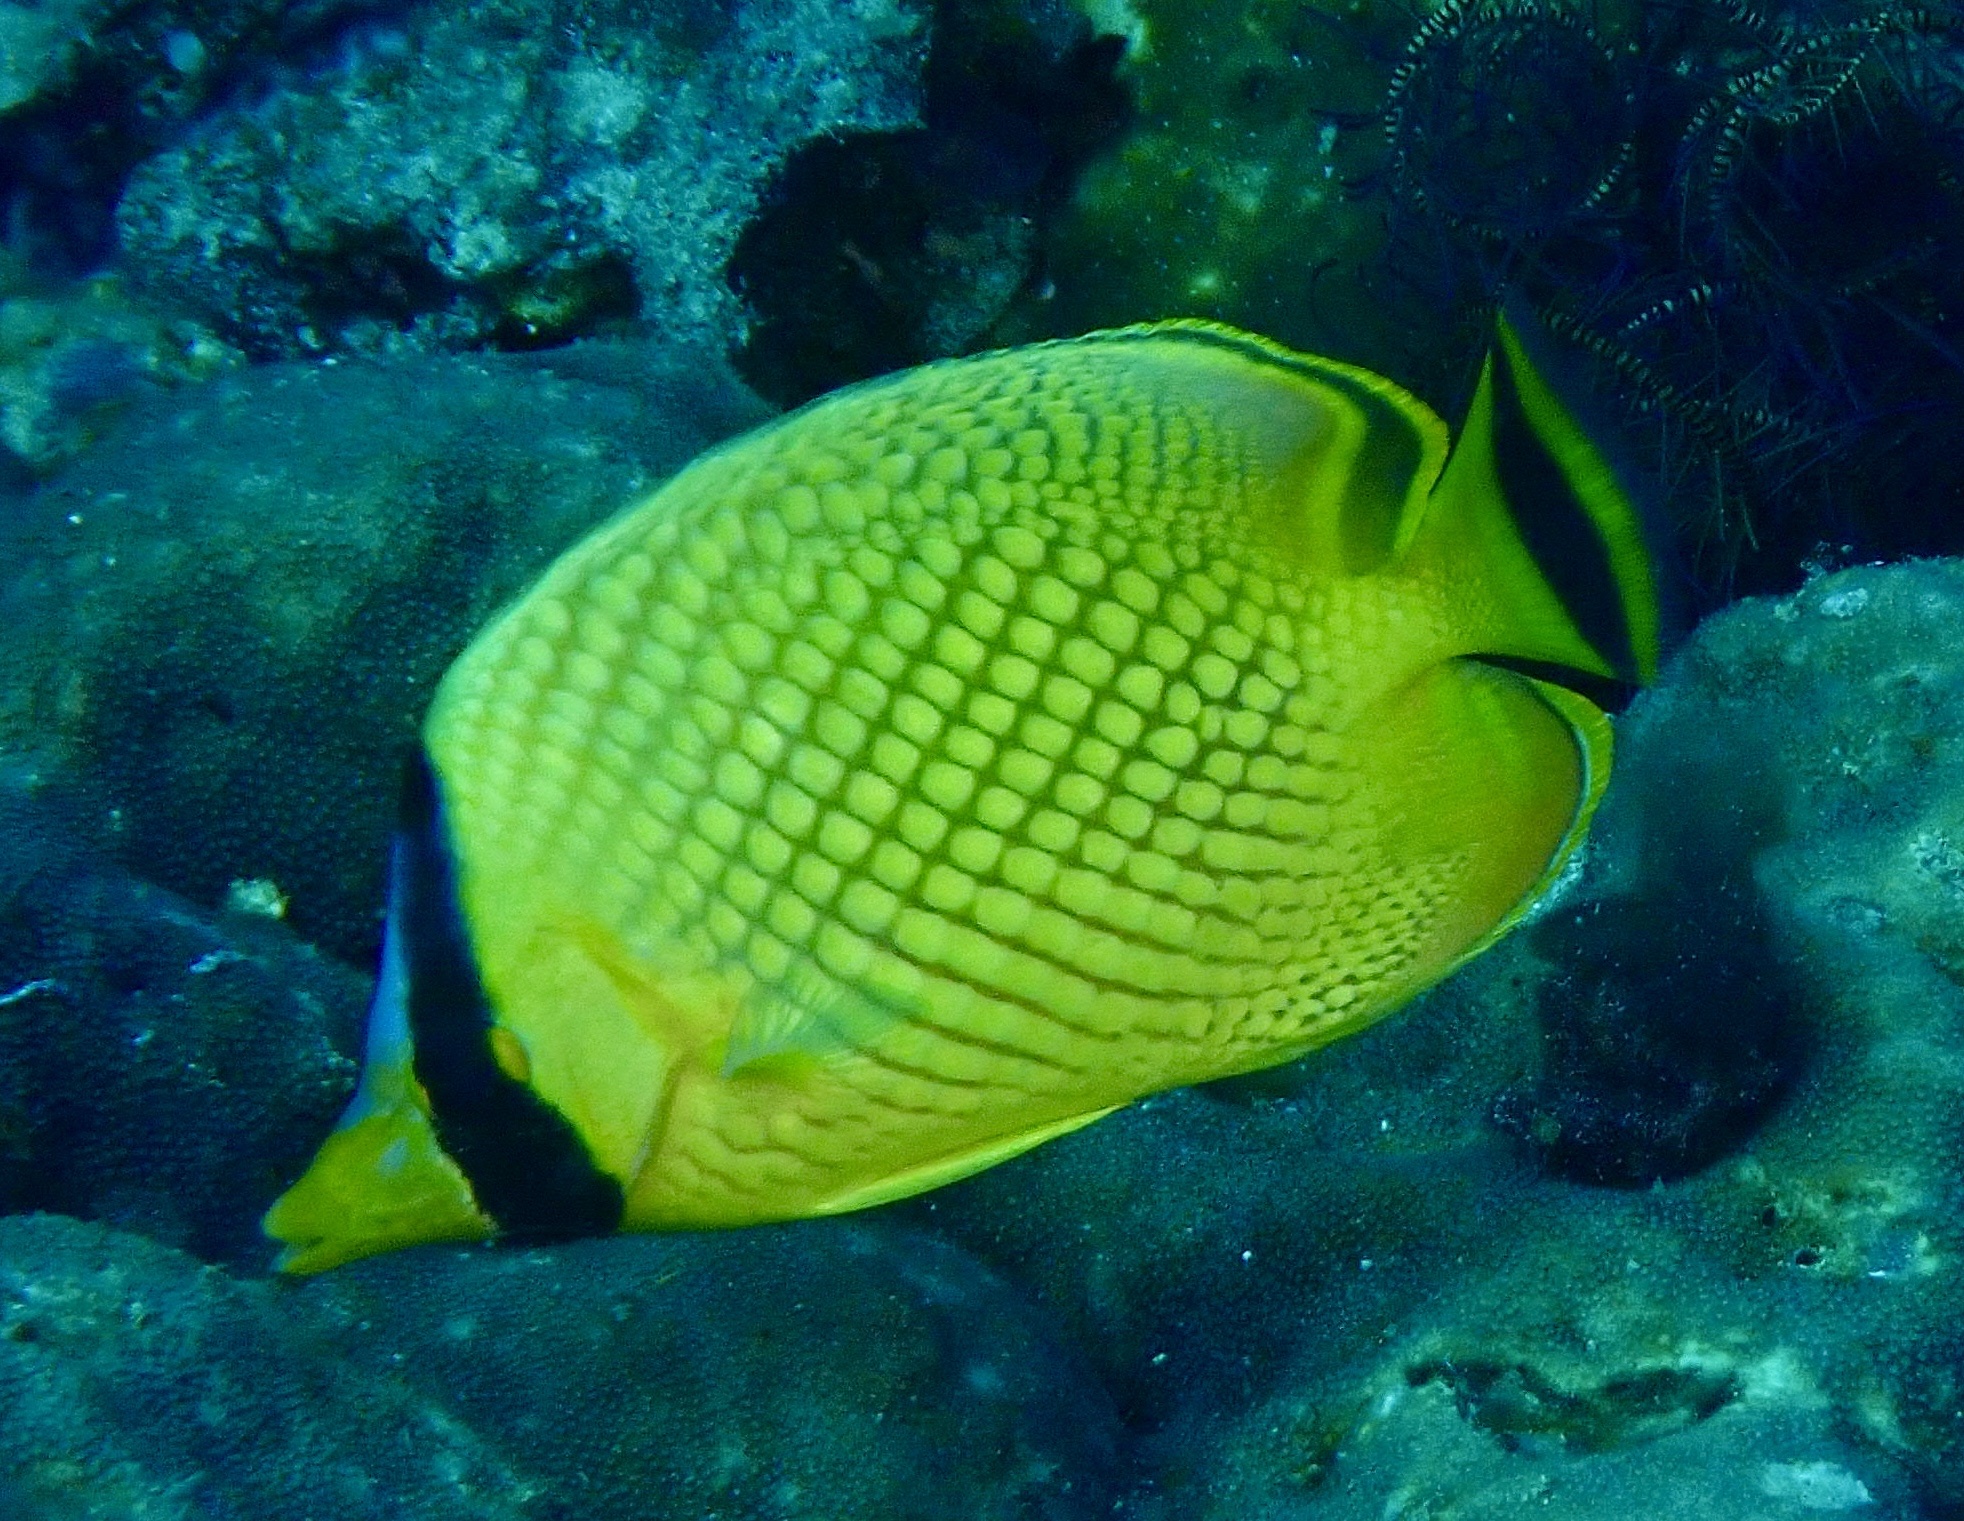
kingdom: Animalia
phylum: Chordata
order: Perciformes
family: Chaetodontidae
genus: Chaetodon
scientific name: Chaetodon rafflesii
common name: Latticed butterflyfish
